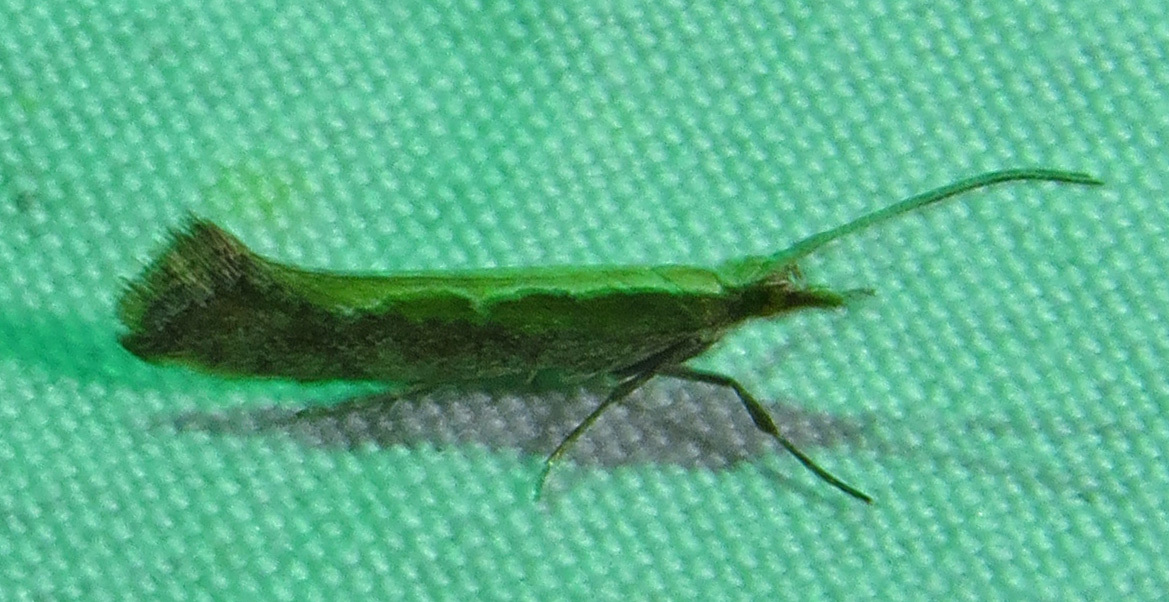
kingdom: Animalia
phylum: Arthropoda
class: Insecta
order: Lepidoptera
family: Plutellidae
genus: Plutella
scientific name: Plutella xylostella
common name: Diamond-back moth
